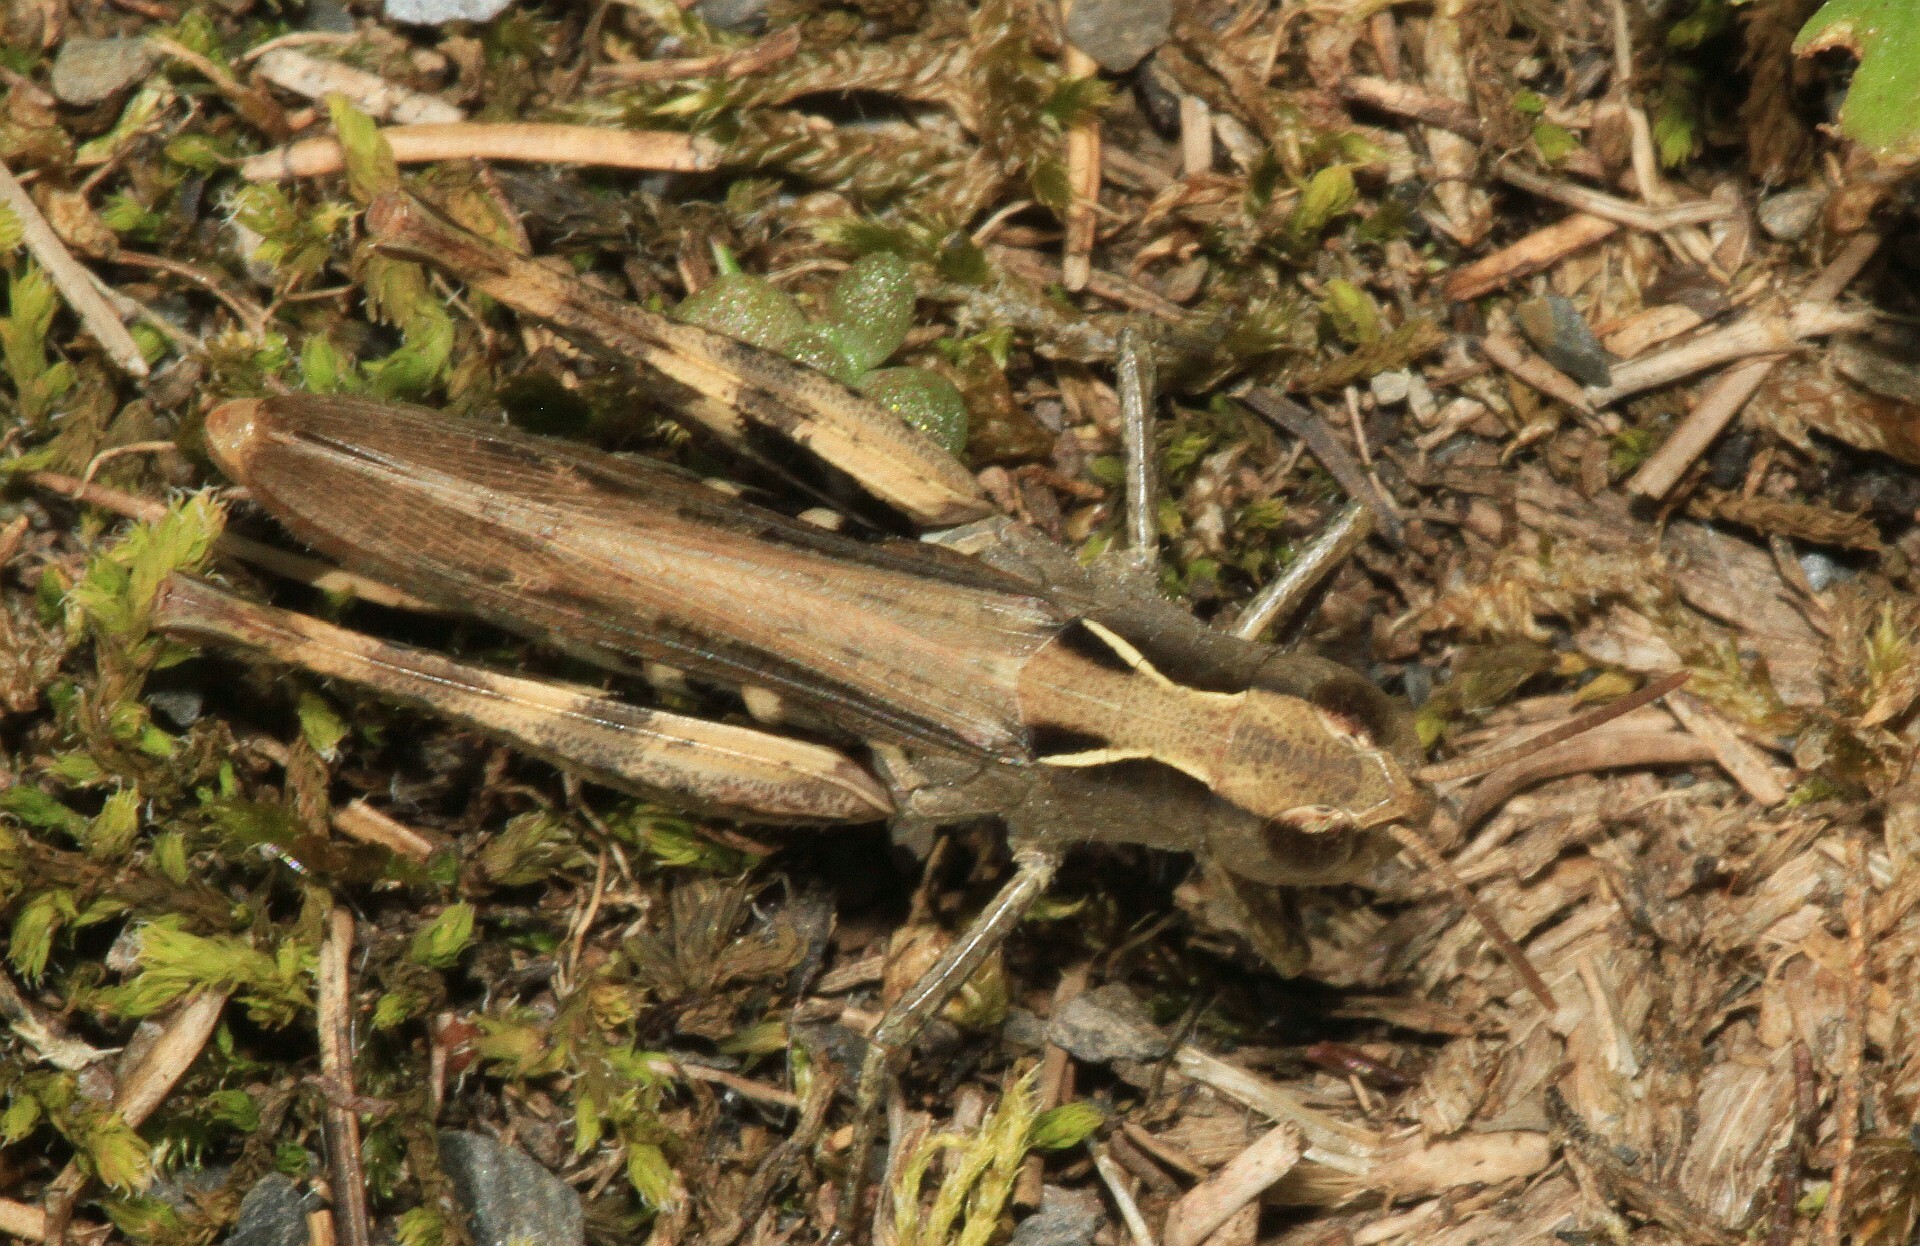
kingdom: Animalia
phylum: Arthropoda
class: Insecta
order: Orthoptera
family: Acrididae
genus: Chorthippus
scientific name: Chorthippus vagans
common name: Heath grasshopper
